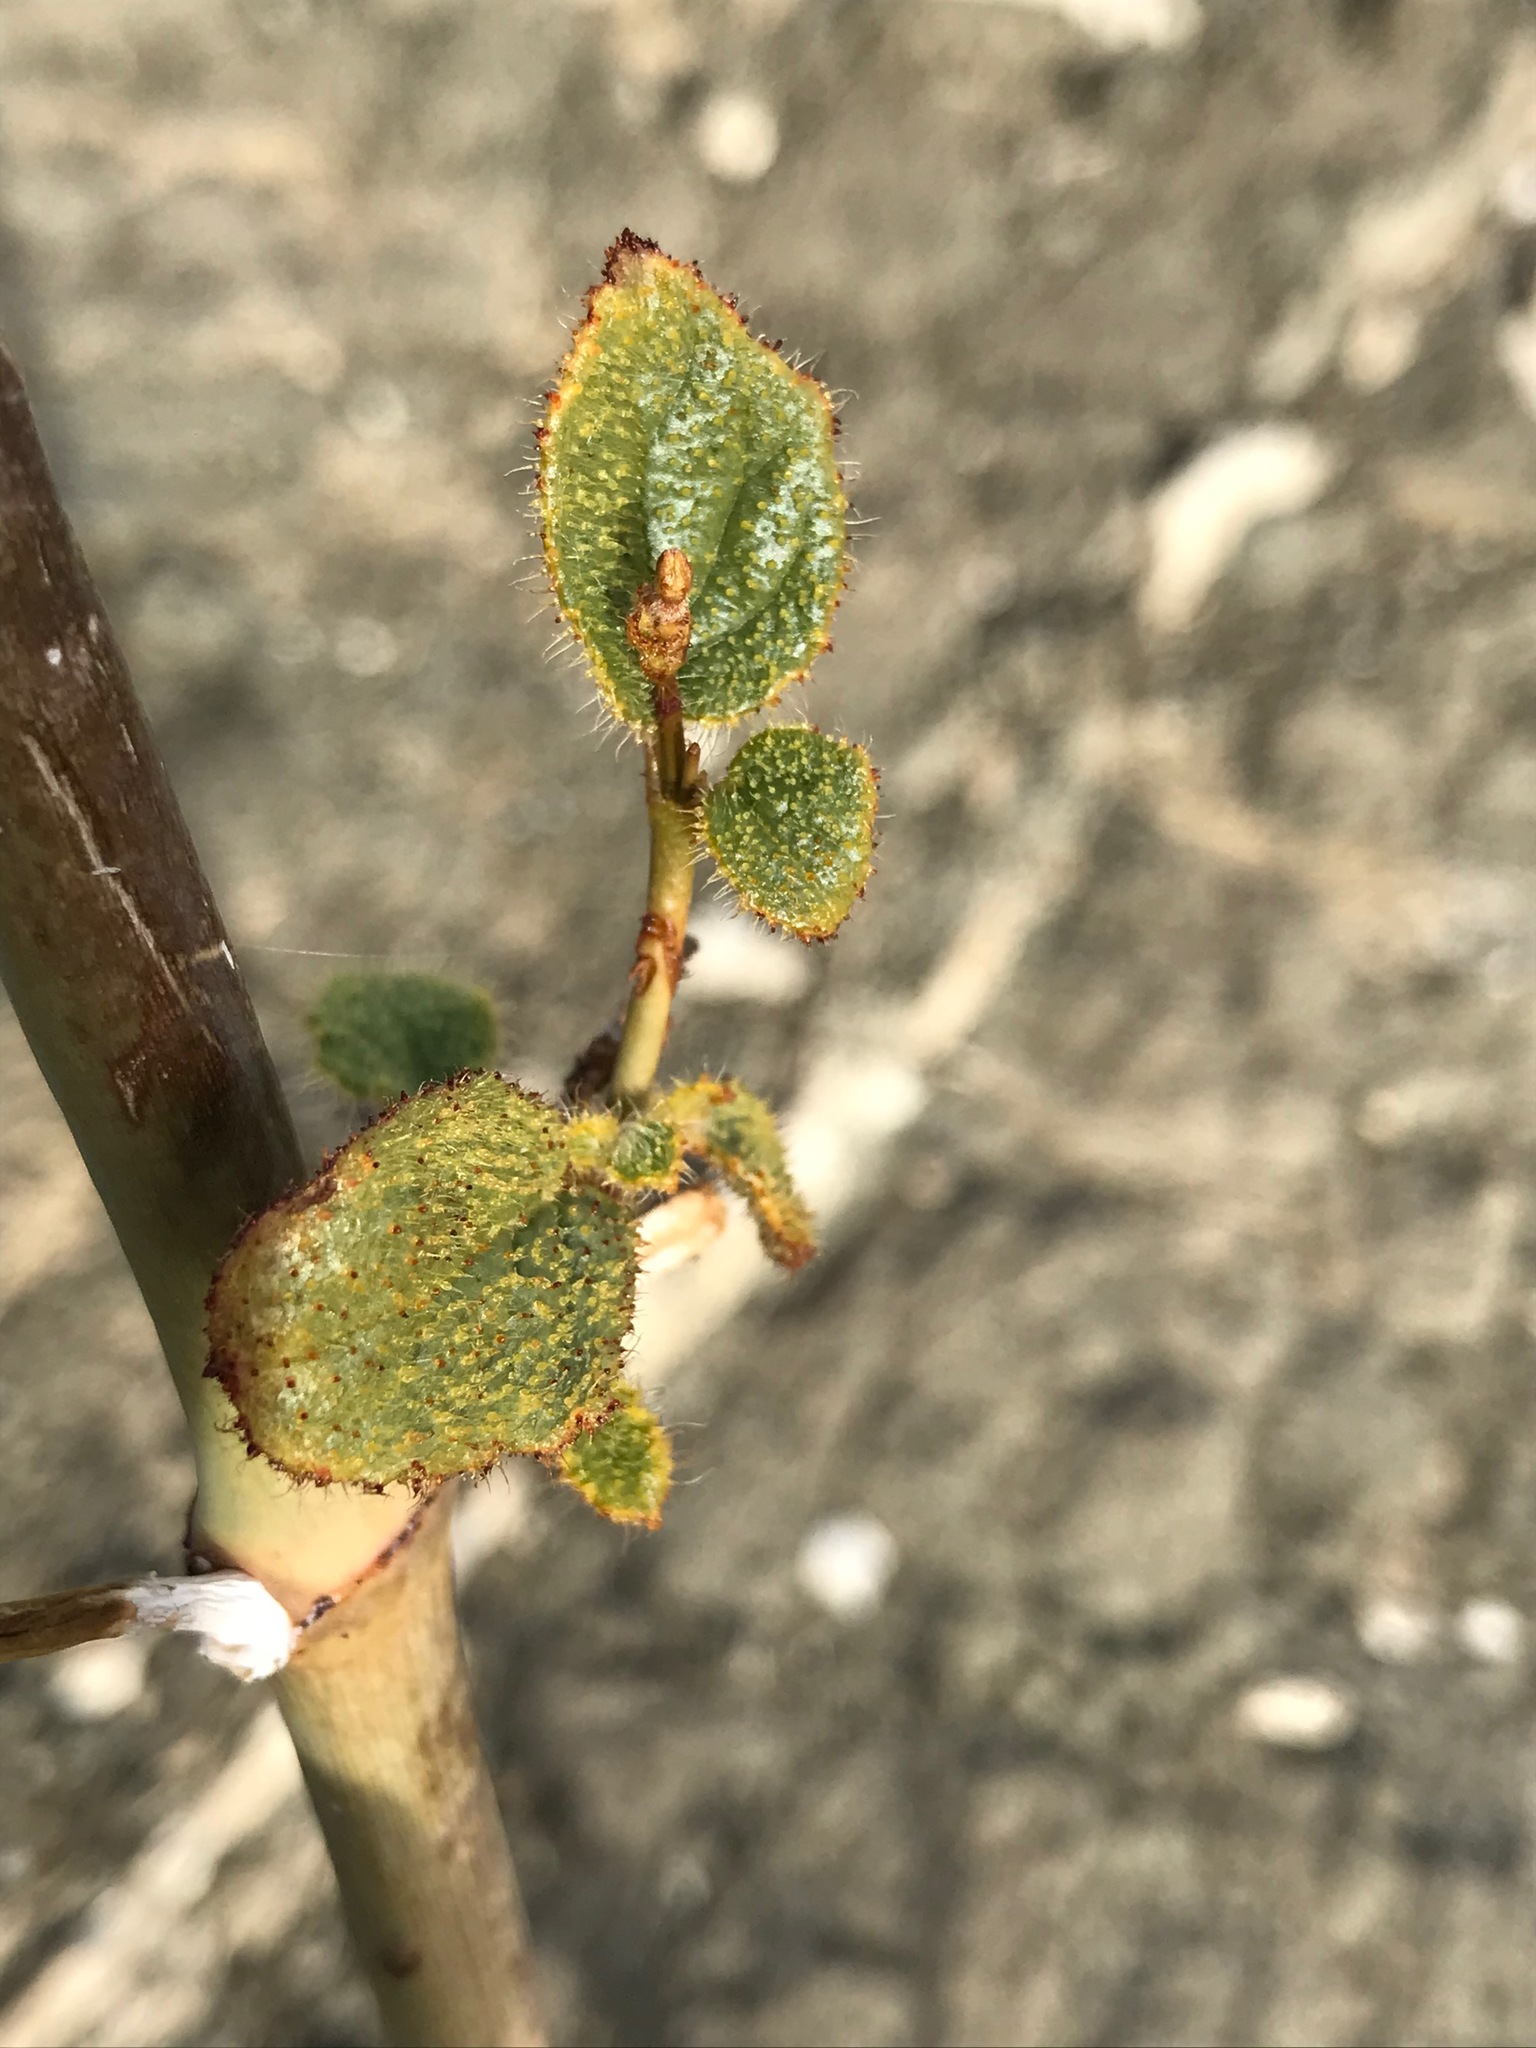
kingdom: Plantae
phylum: Tracheophyta
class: Magnoliopsida
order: Caryophyllales
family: Nyctaginaceae
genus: Anulocaulis
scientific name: Anulocaulis annulatus
